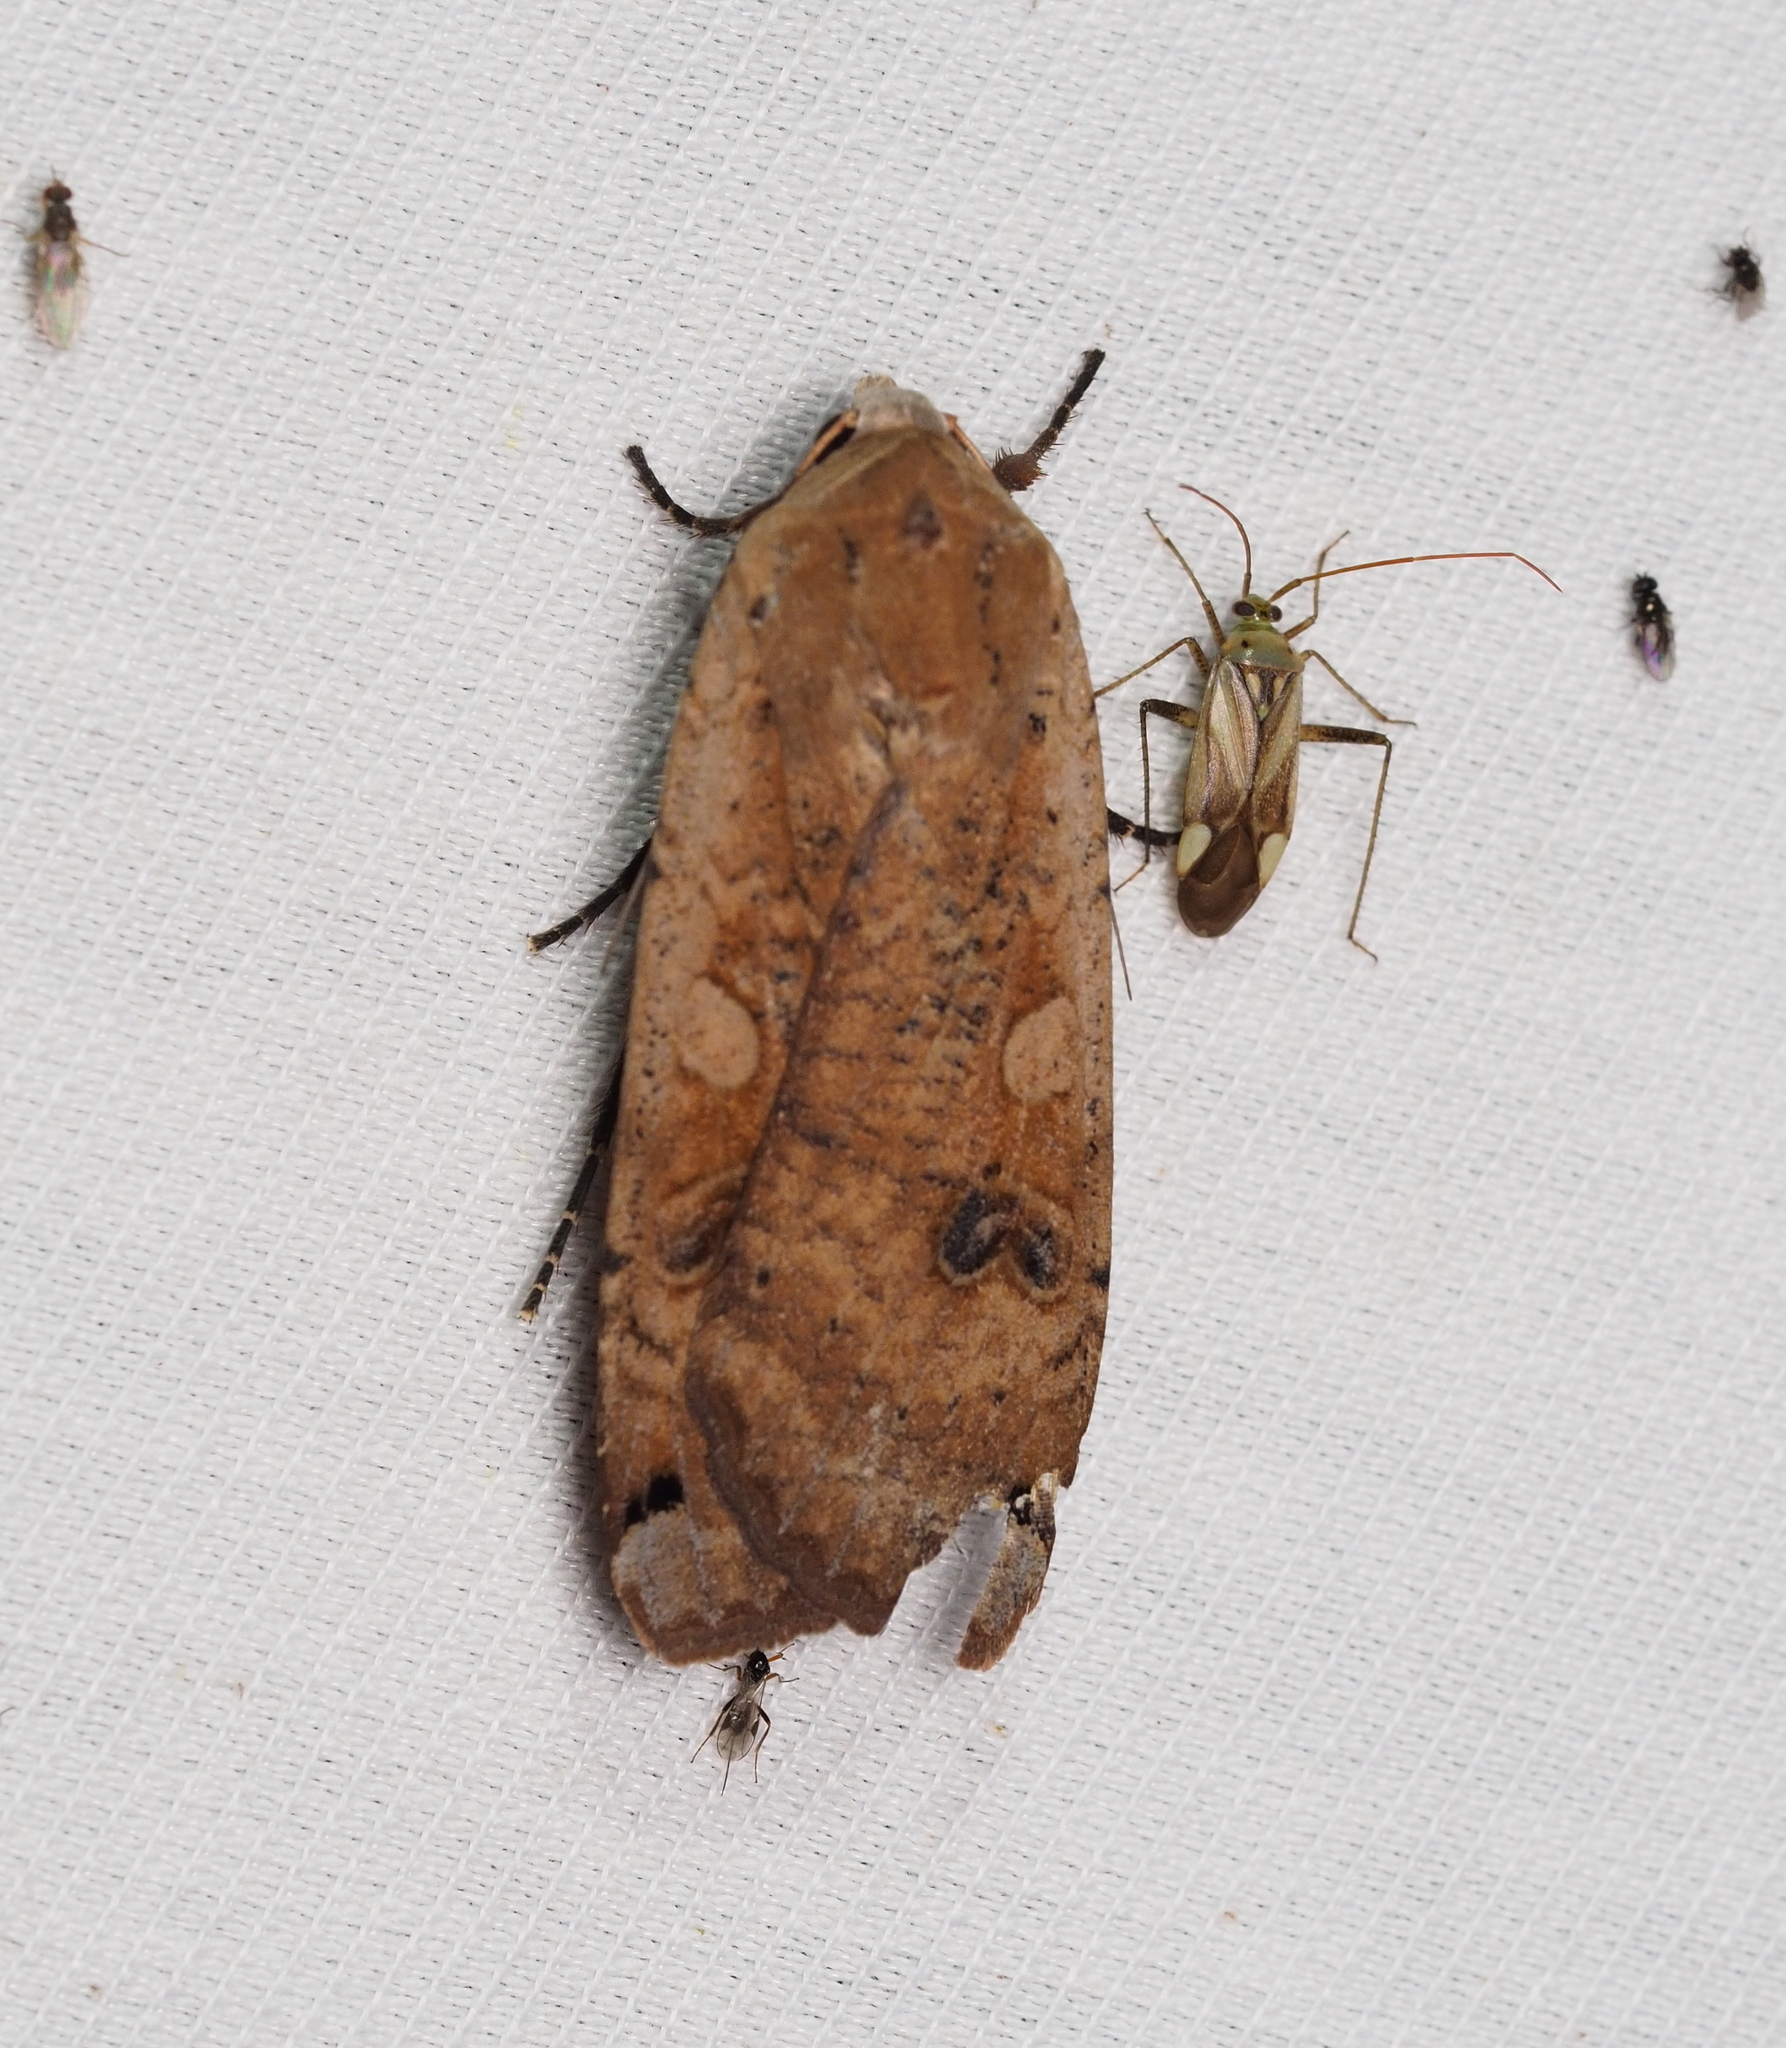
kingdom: Animalia
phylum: Arthropoda
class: Insecta
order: Lepidoptera
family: Noctuidae
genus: Noctua
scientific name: Noctua pronuba
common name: Large yellow underwing
